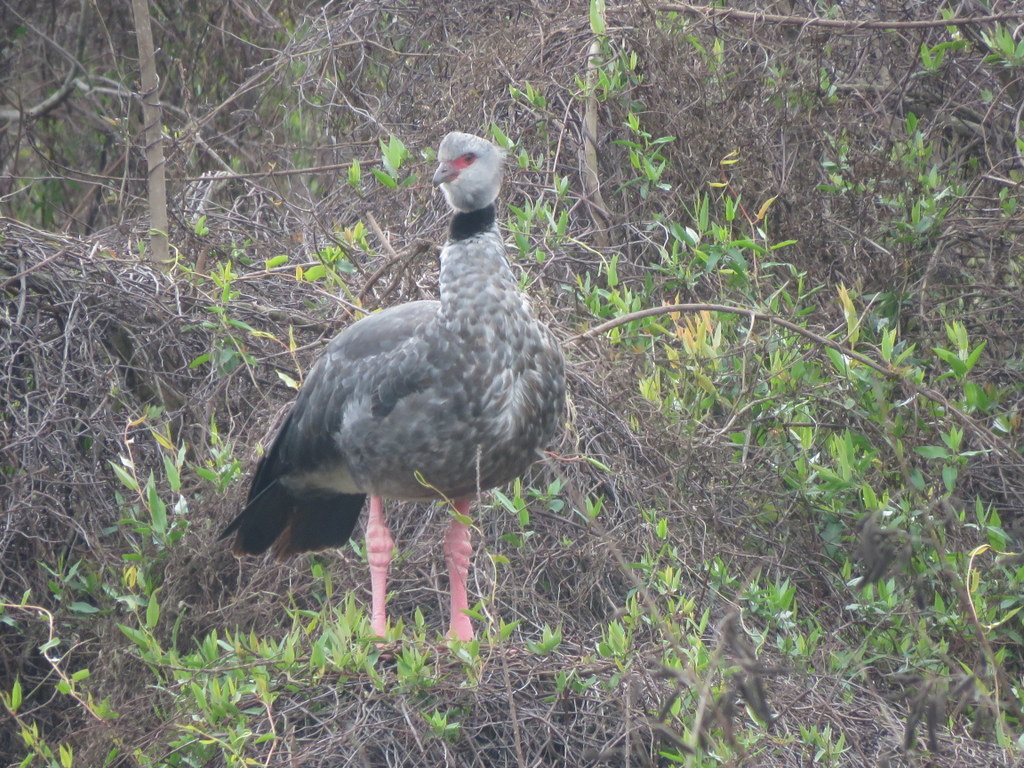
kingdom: Animalia
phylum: Chordata
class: Aves
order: Anseriformes
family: Anhimidae
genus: Chauna
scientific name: Chauna torquata
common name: Southern screamer
